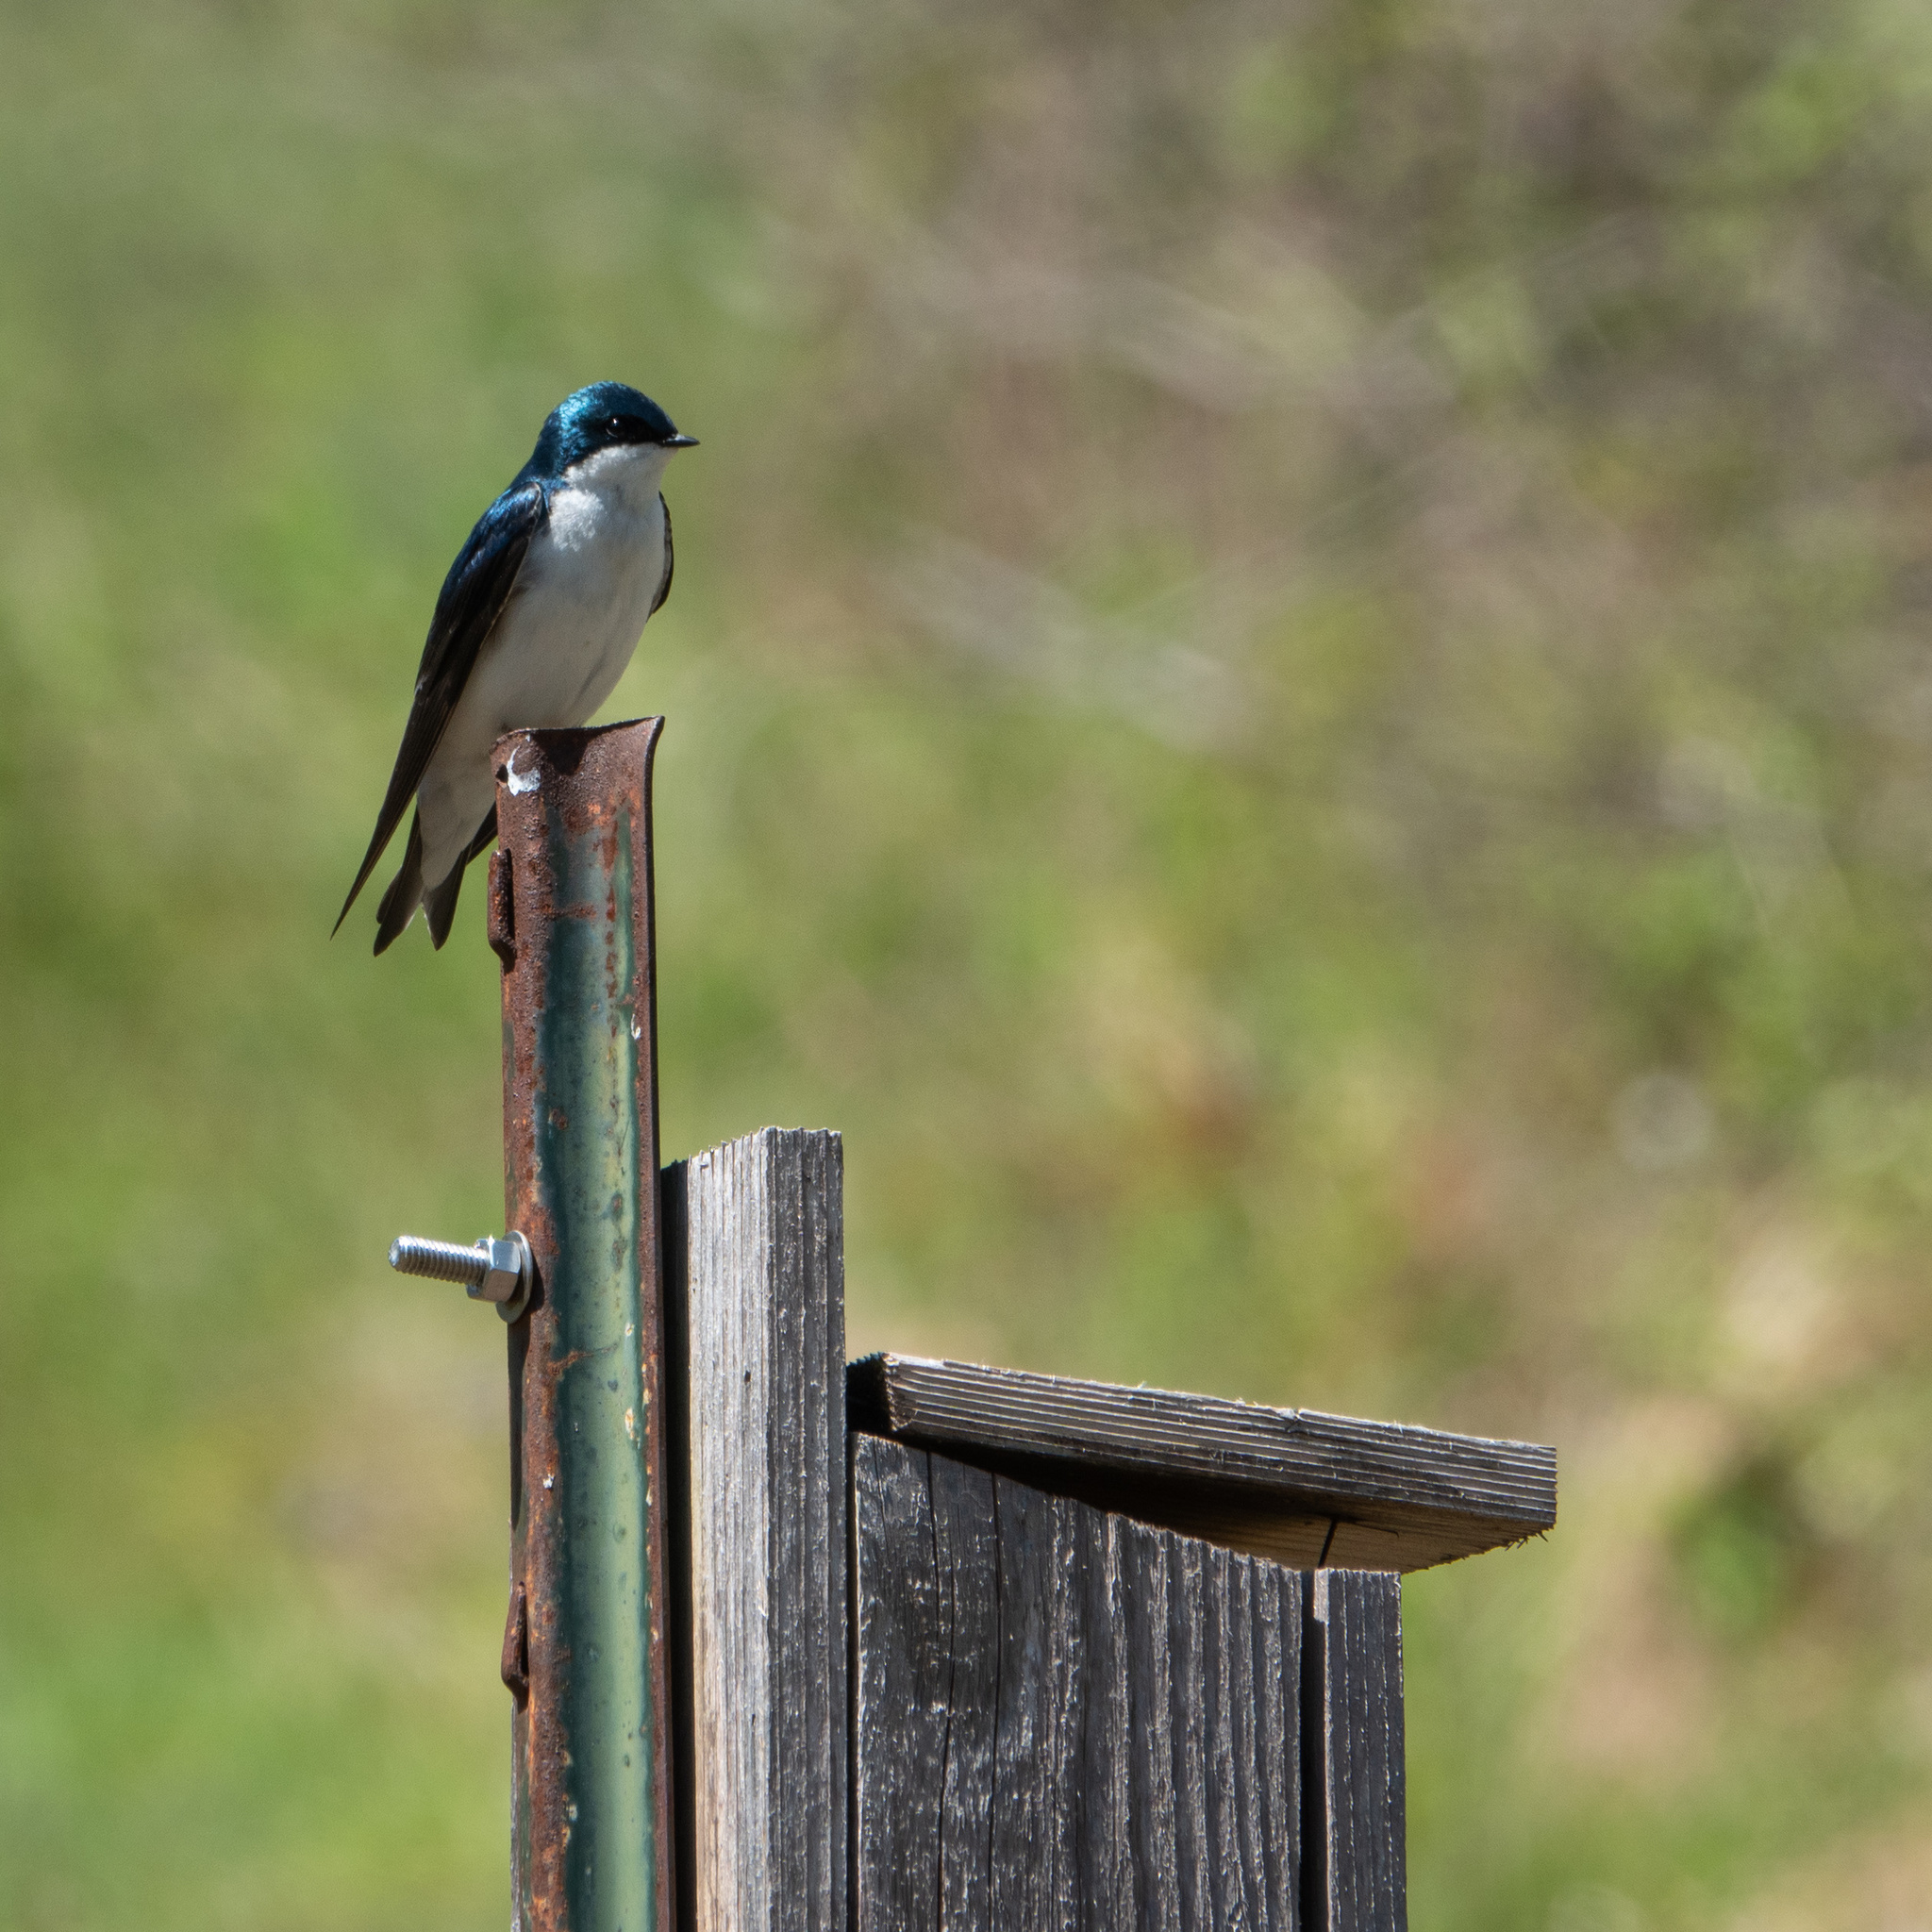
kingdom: Animalia
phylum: Chordata
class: Aves
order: Passeriformes
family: Hirundinidae
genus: Tachycineta
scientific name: Tachycineta bicolor
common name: Tree swallow
